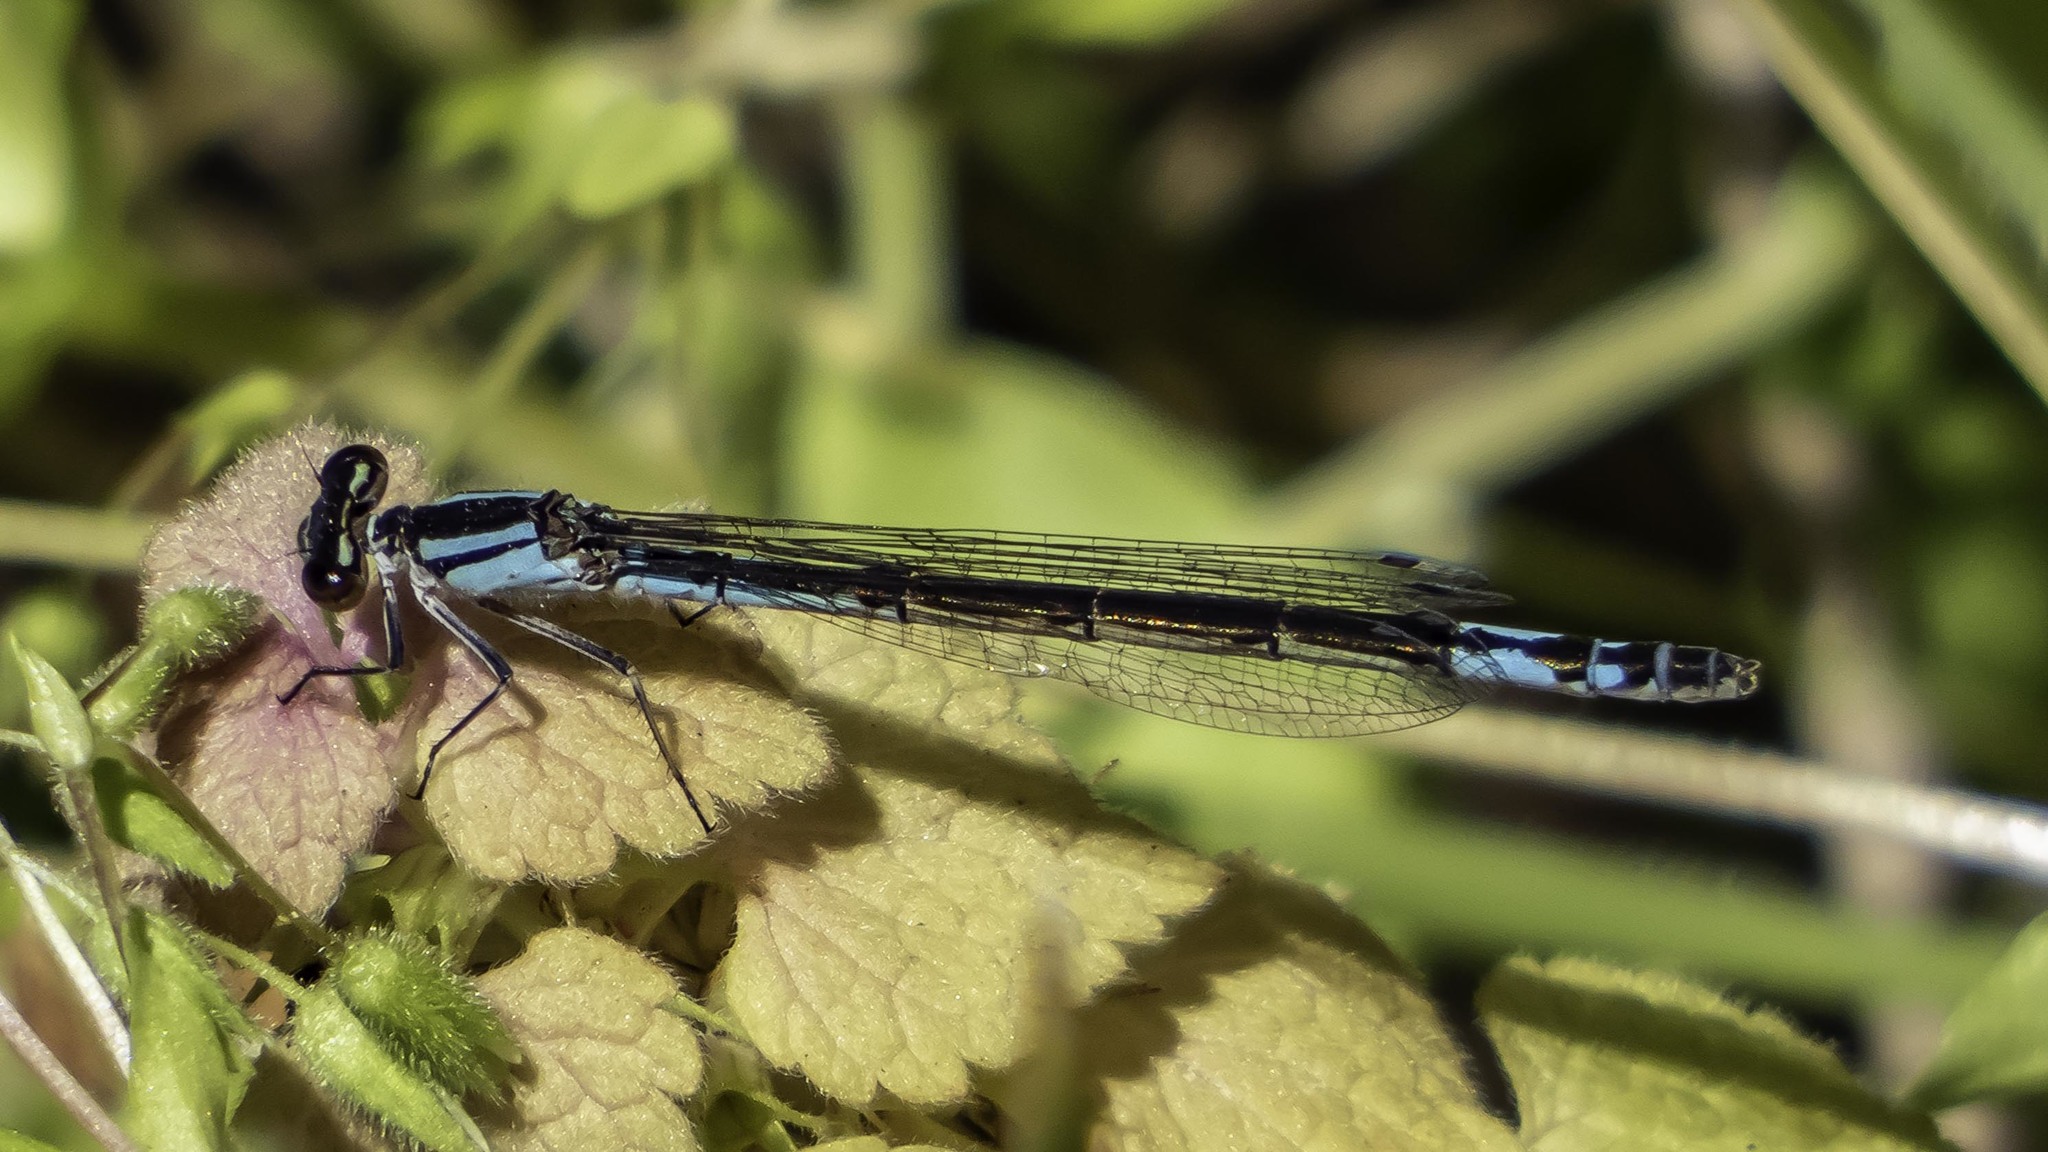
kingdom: Animalia
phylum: Arthropoda
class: Insecta
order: Odonata
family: Coenagrionidae
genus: Enallagma
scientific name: Enallagma aspersum
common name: Azure bluet
